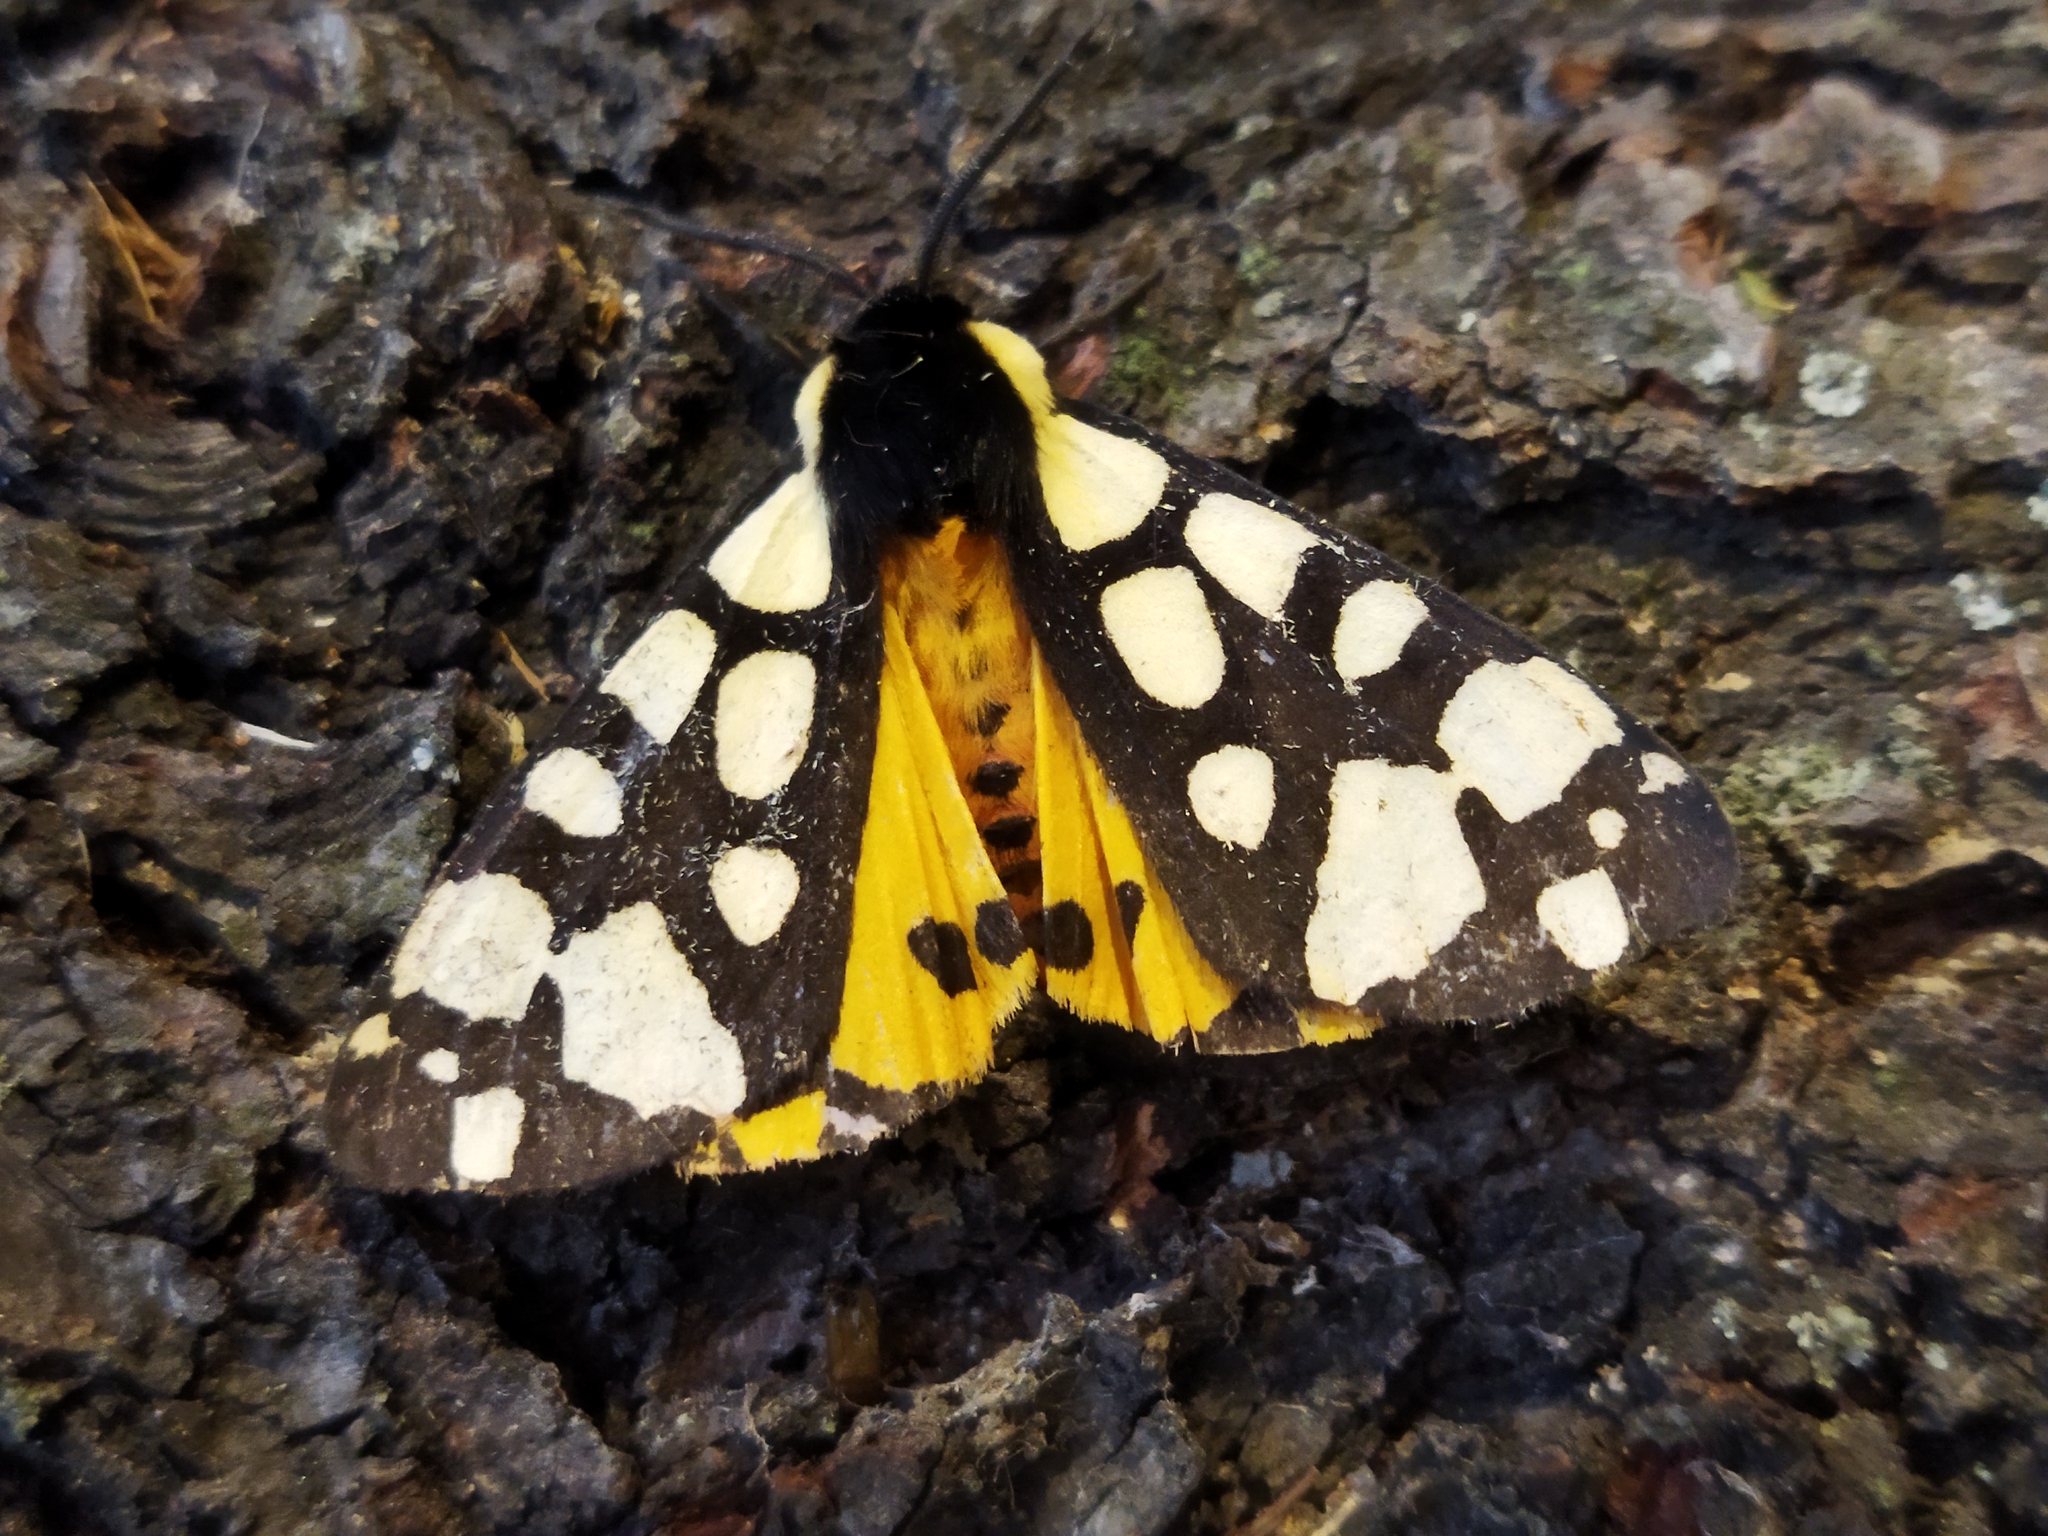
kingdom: Animalia
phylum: Arthropoda
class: Insecta
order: Lepidoptera
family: Erebidae
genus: Epicallia
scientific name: Epicallia villica
